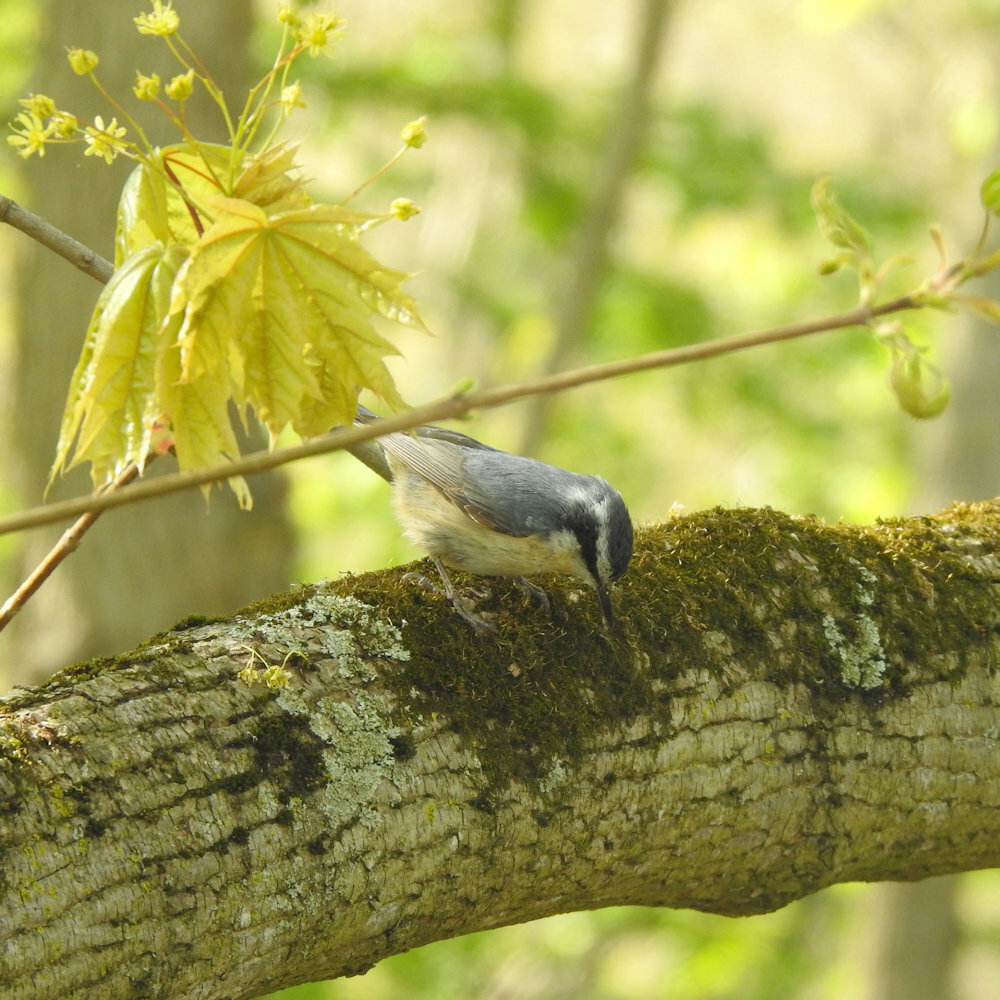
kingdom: Animalia
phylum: Chordata
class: Aves
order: Passeriformes
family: Sittidae
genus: Sitta
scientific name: Sitta canadensis
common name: Red-breasted nuthatch
